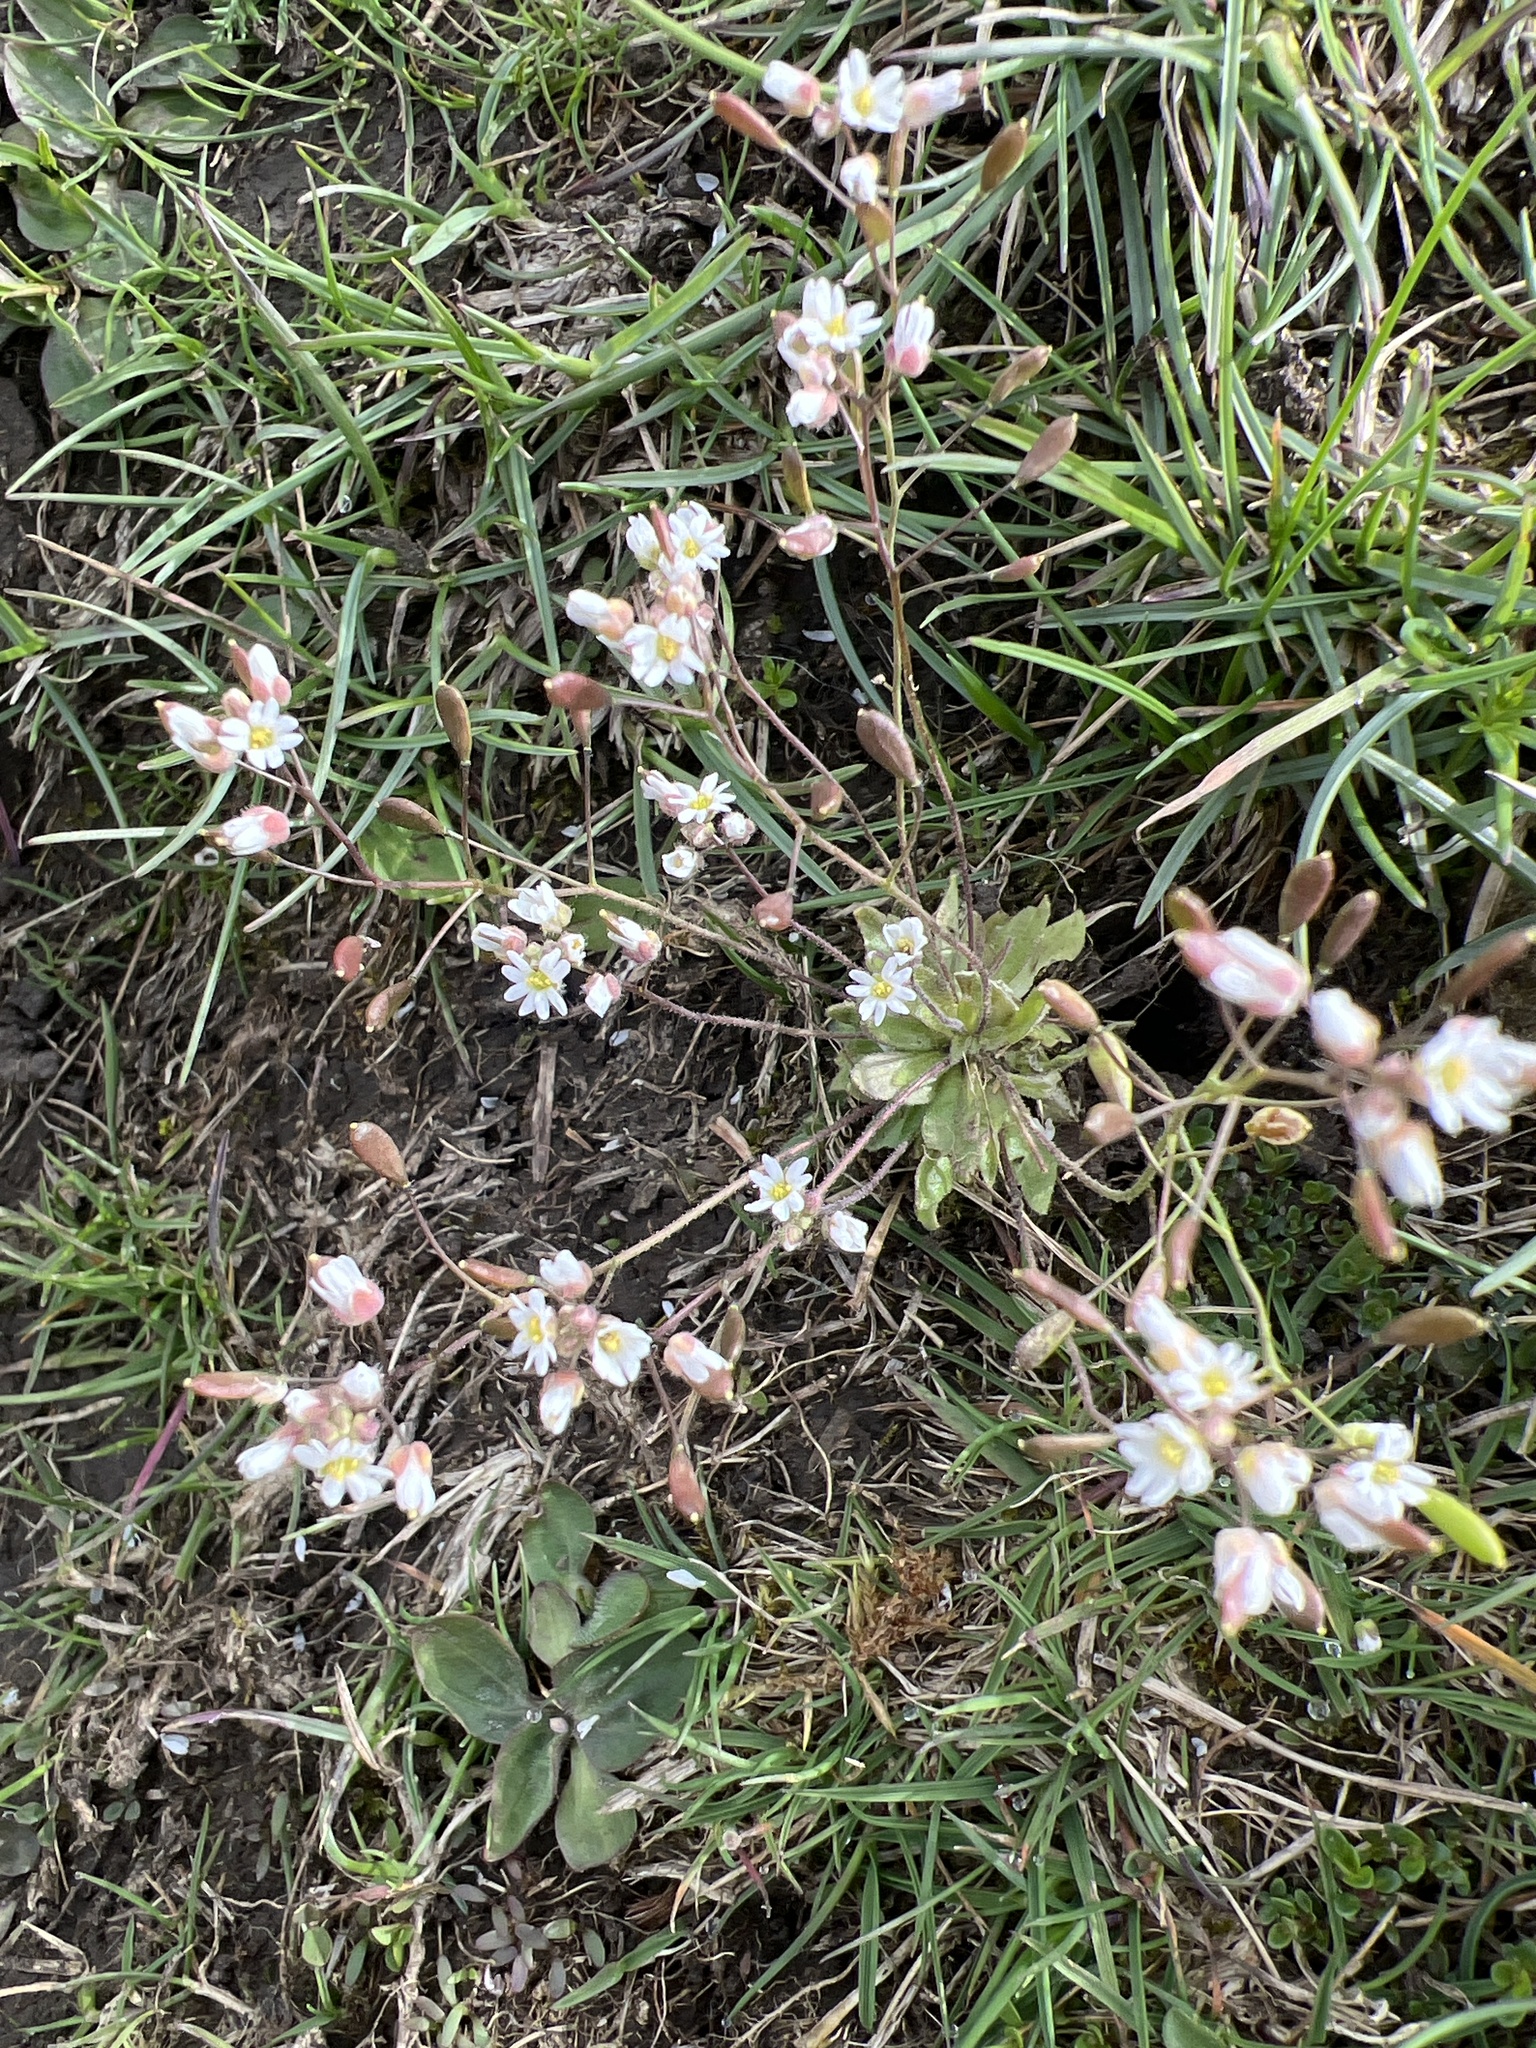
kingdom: Plantae
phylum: Tracheophyta
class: Magnoliopsida
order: Brassicales
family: Brassicaceae
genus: Draba
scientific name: Draba verna
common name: Spring draba
